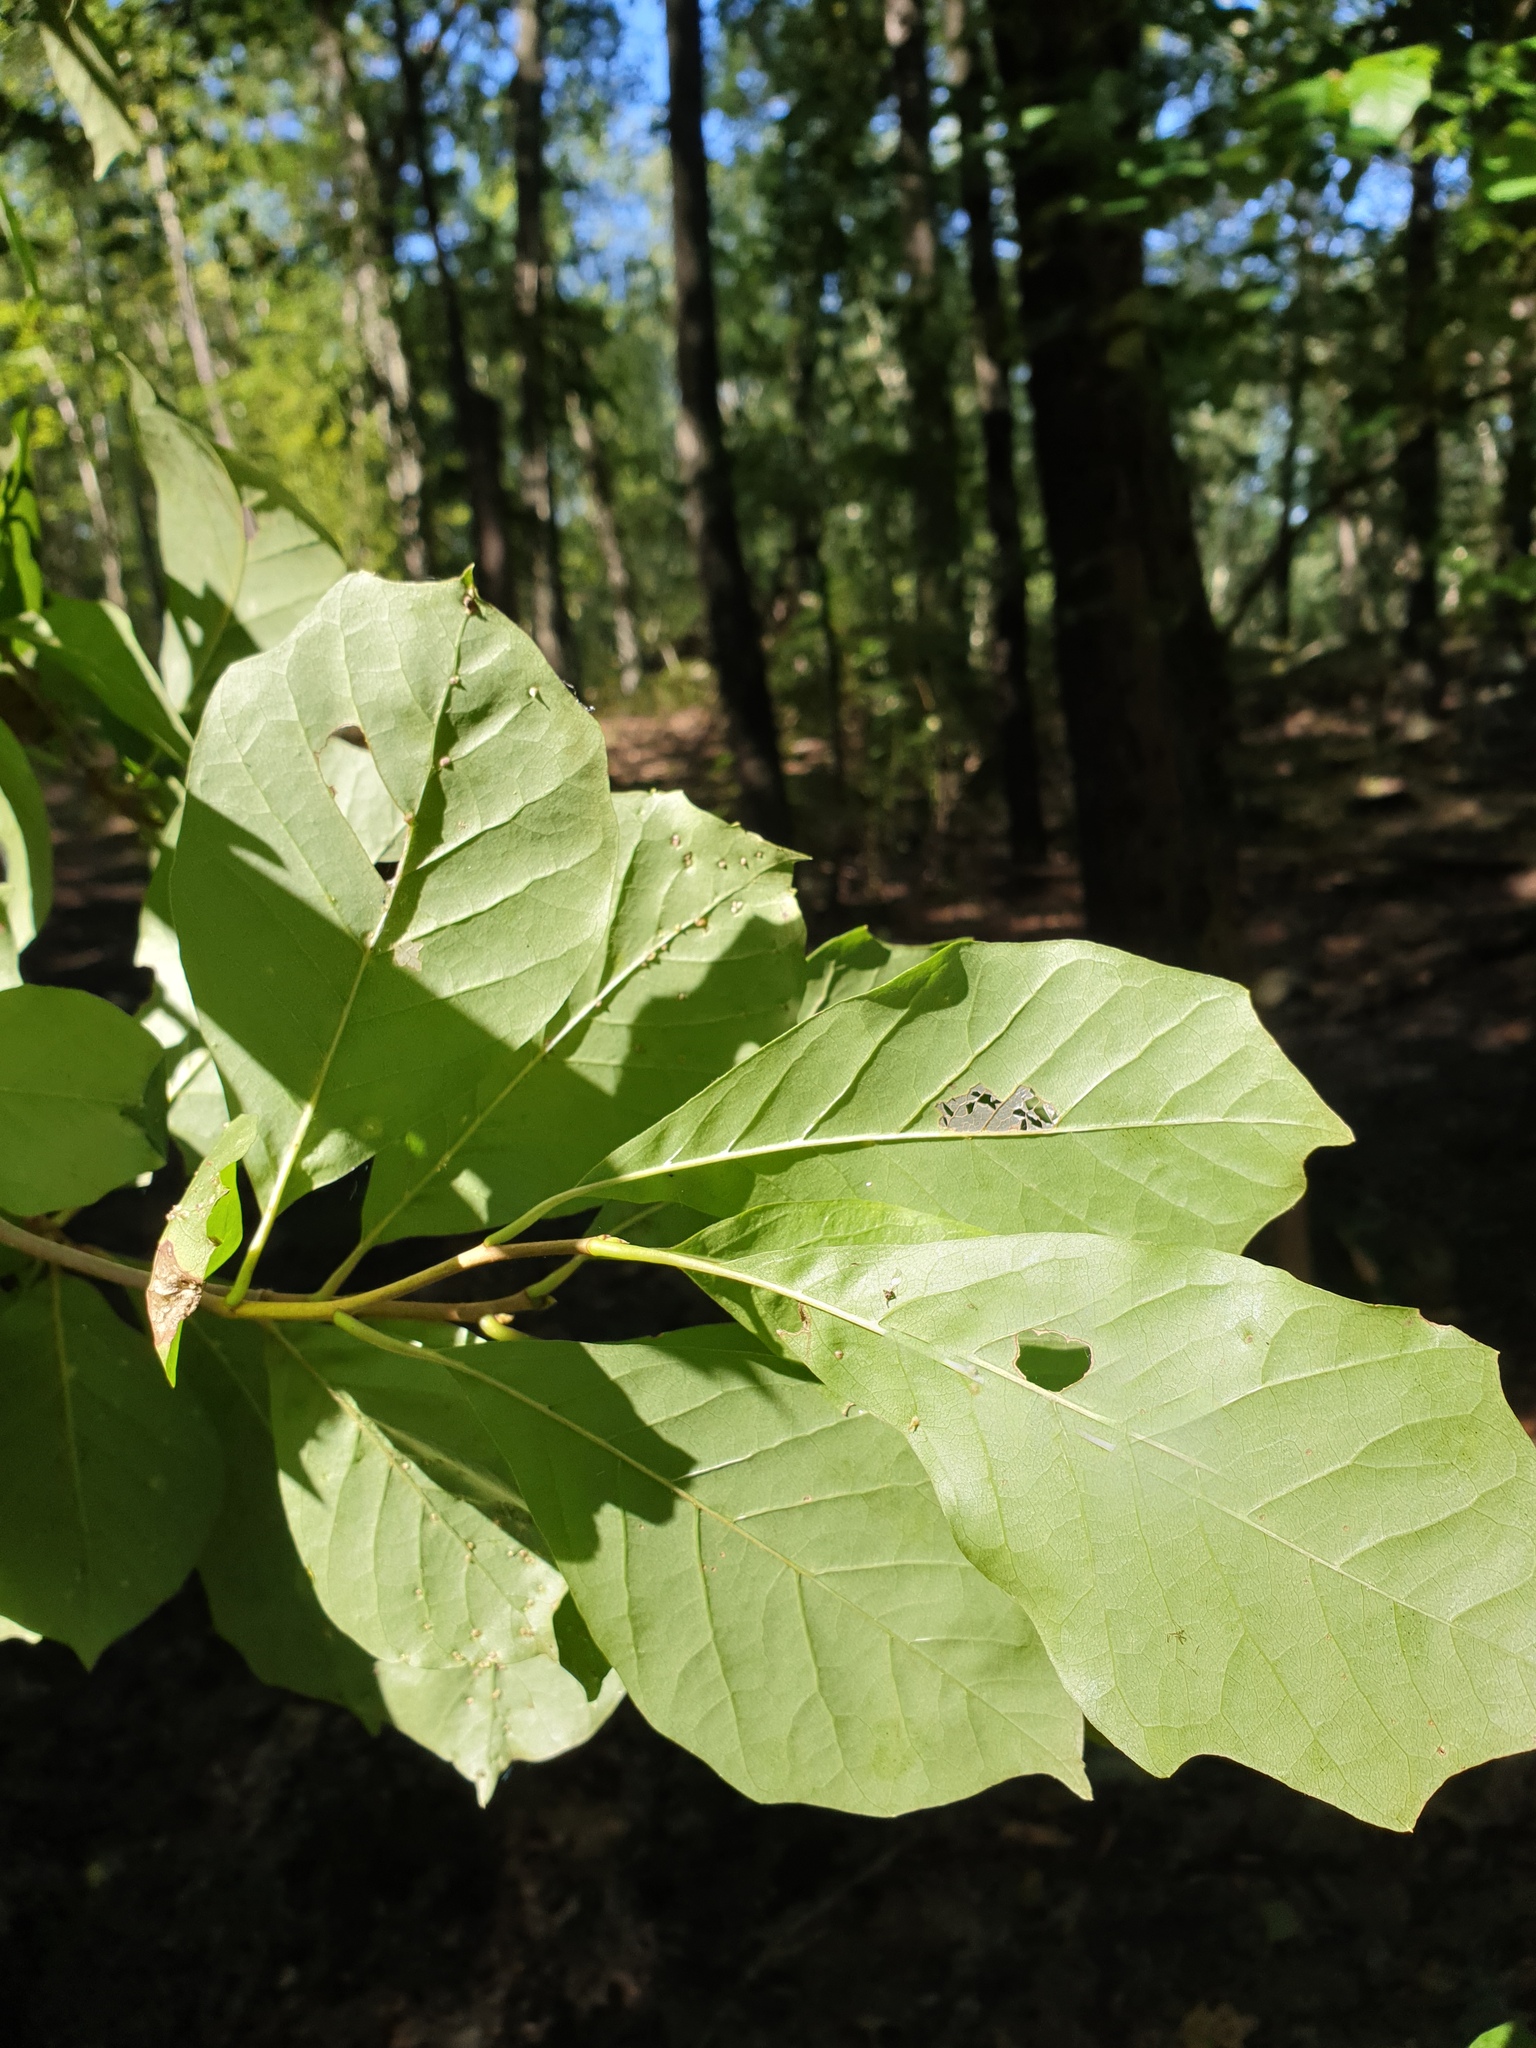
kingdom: Plantae
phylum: Tracheophyta
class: Magnoliopsida
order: Cornales
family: Nyssaceae
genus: Nyssa
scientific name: Nyssa sylvatica
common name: Black tupelo
